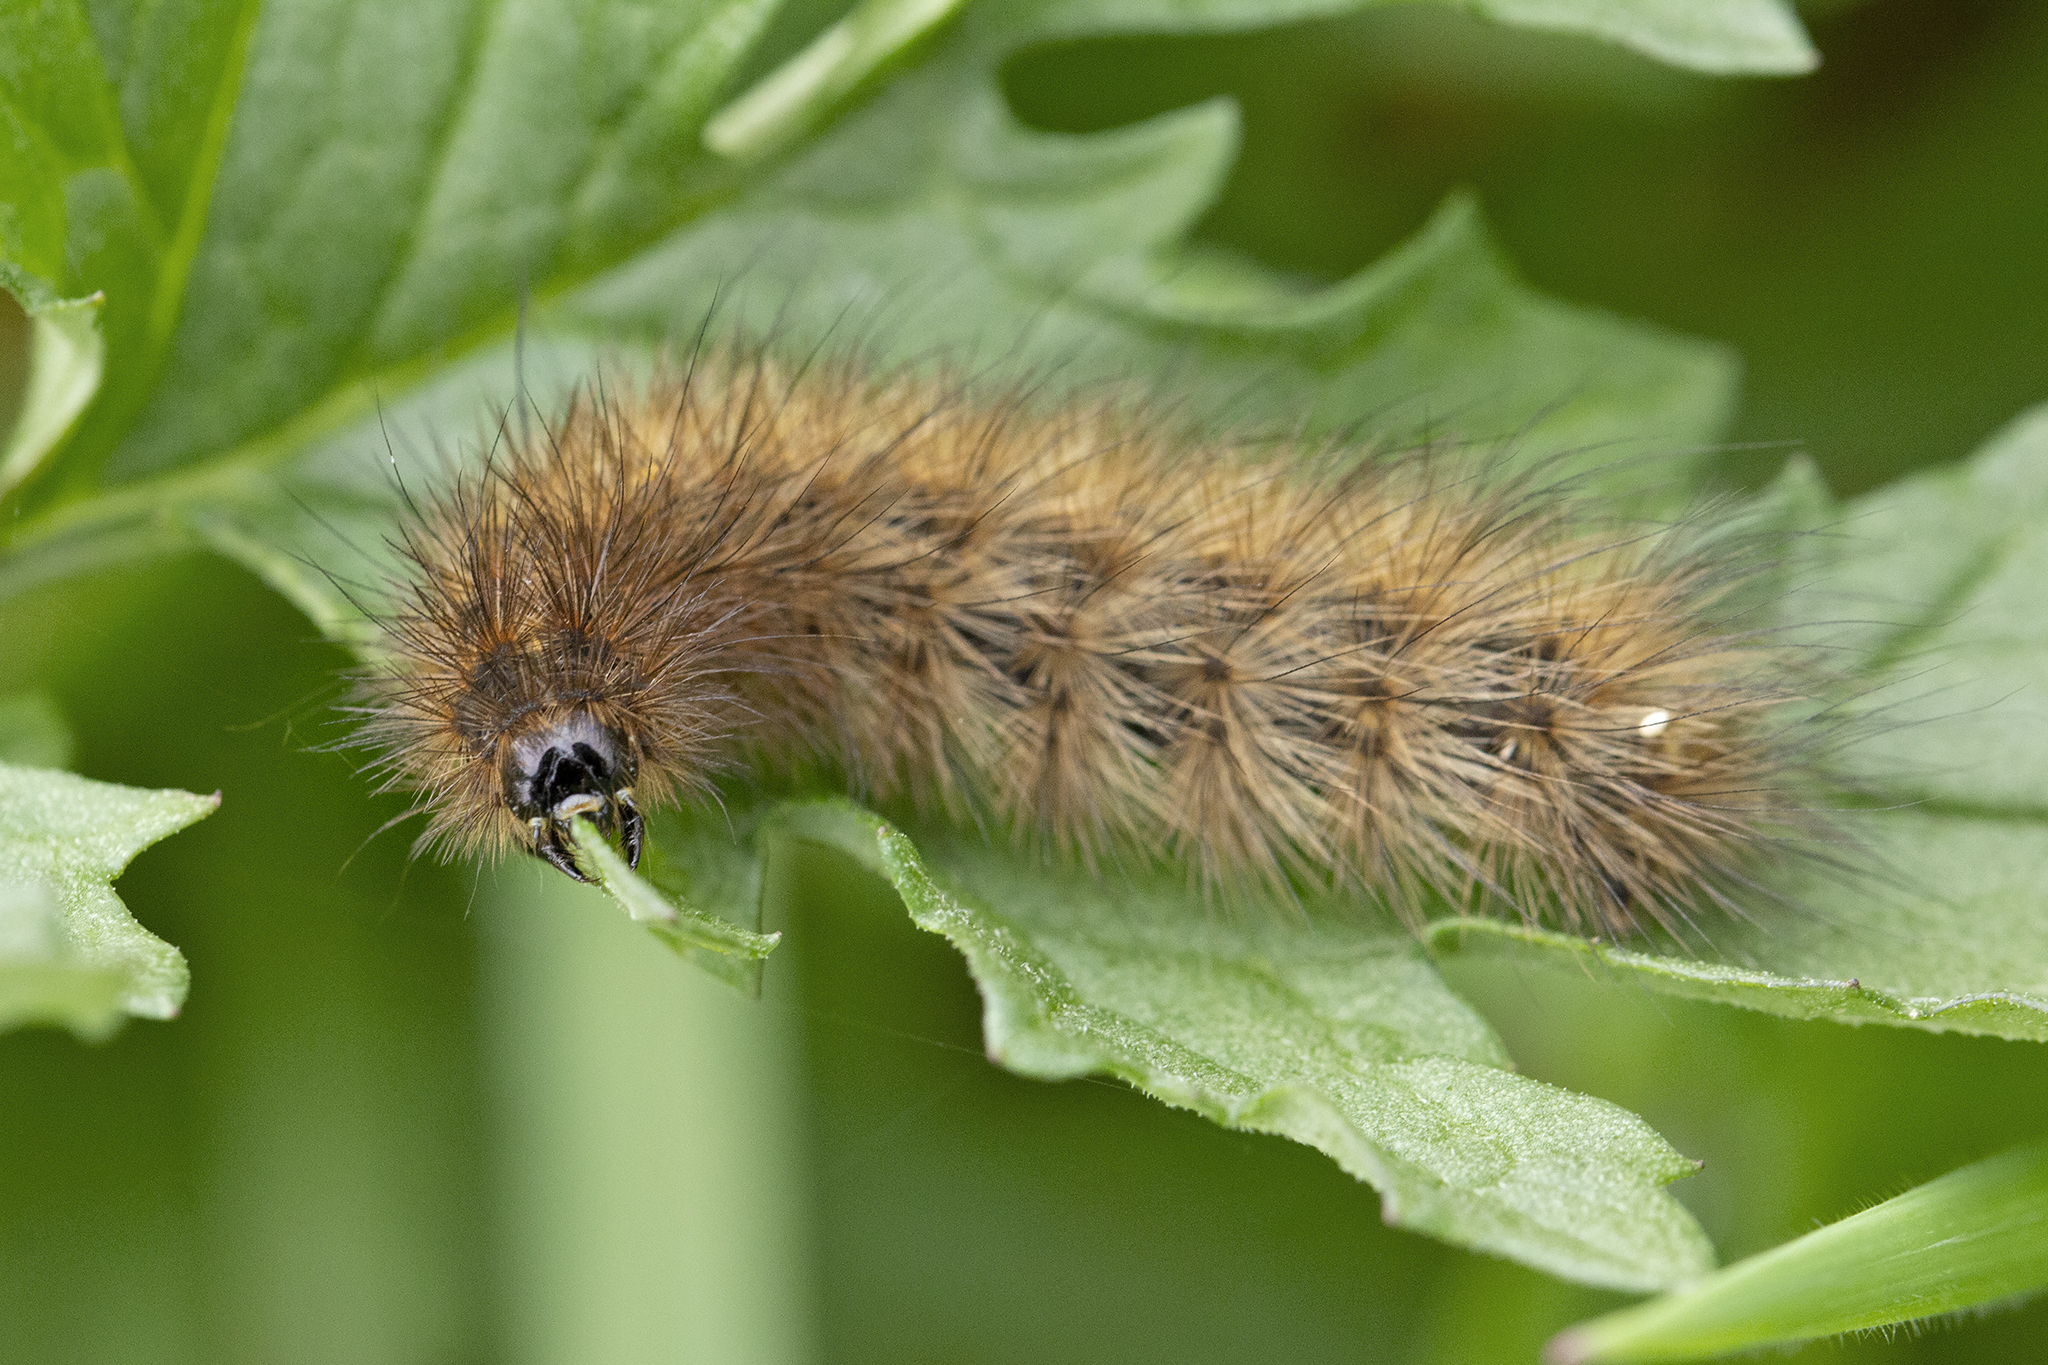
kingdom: Animalia
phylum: Arthropoda
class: Insecta
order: Lepidoptera
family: Erebidae
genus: Phragmatobia
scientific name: Phragmatobia fuliginosa
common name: Ruby tiger
